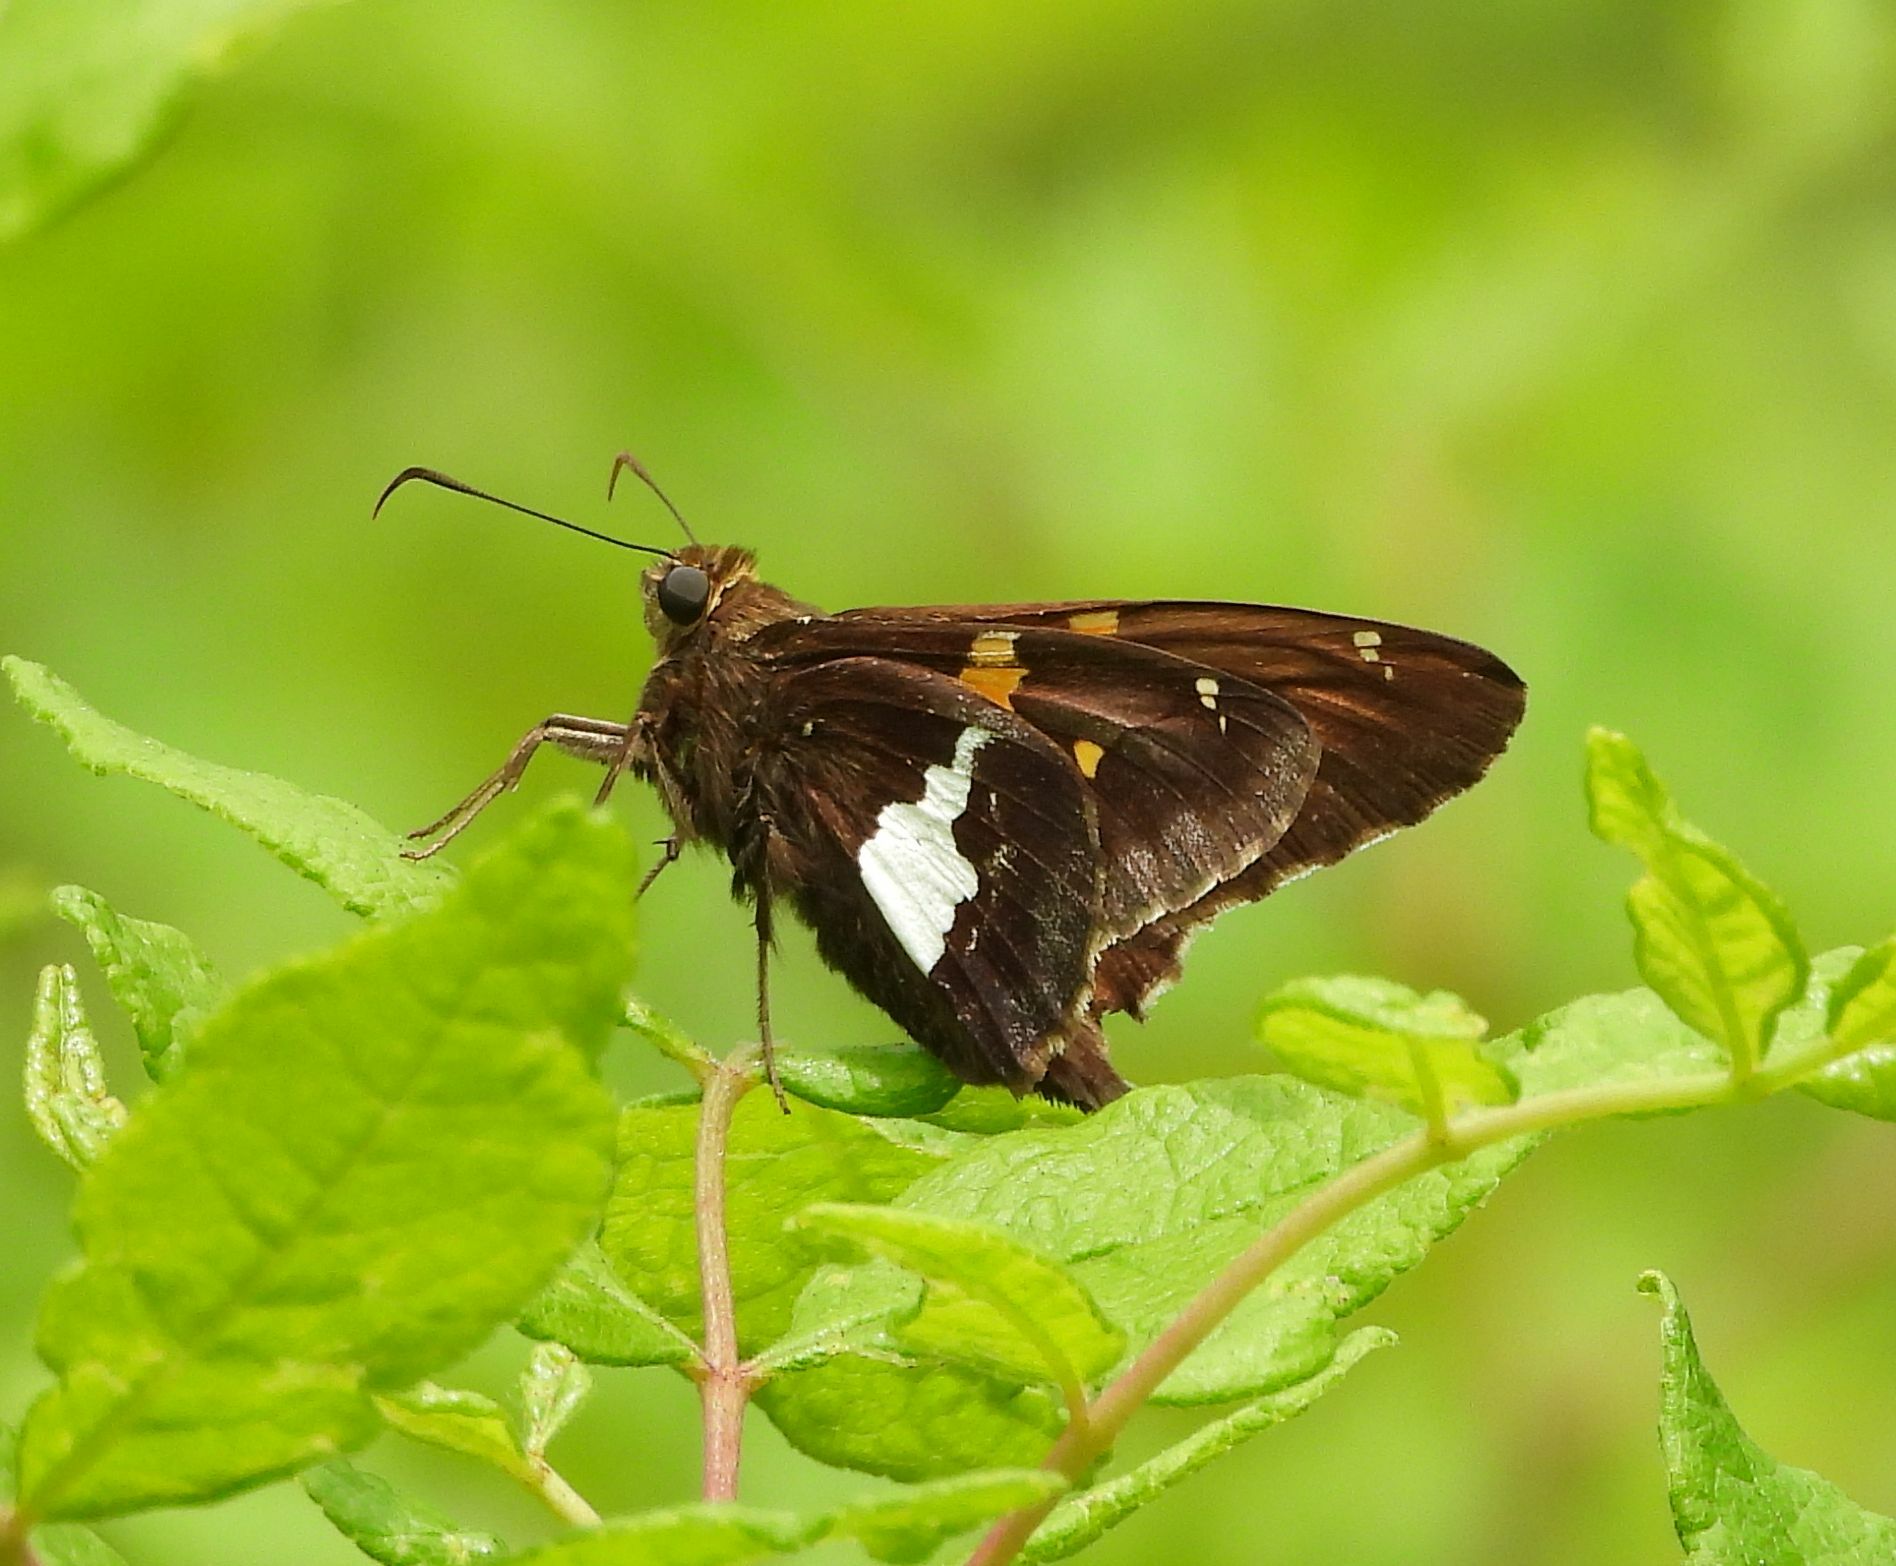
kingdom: Animalia
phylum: Arthropoda
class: Insecta
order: Lepidoptera
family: Hesperiidae
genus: Epargyreus
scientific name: Epargyreus clarus
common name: Silver-spotted skipper
